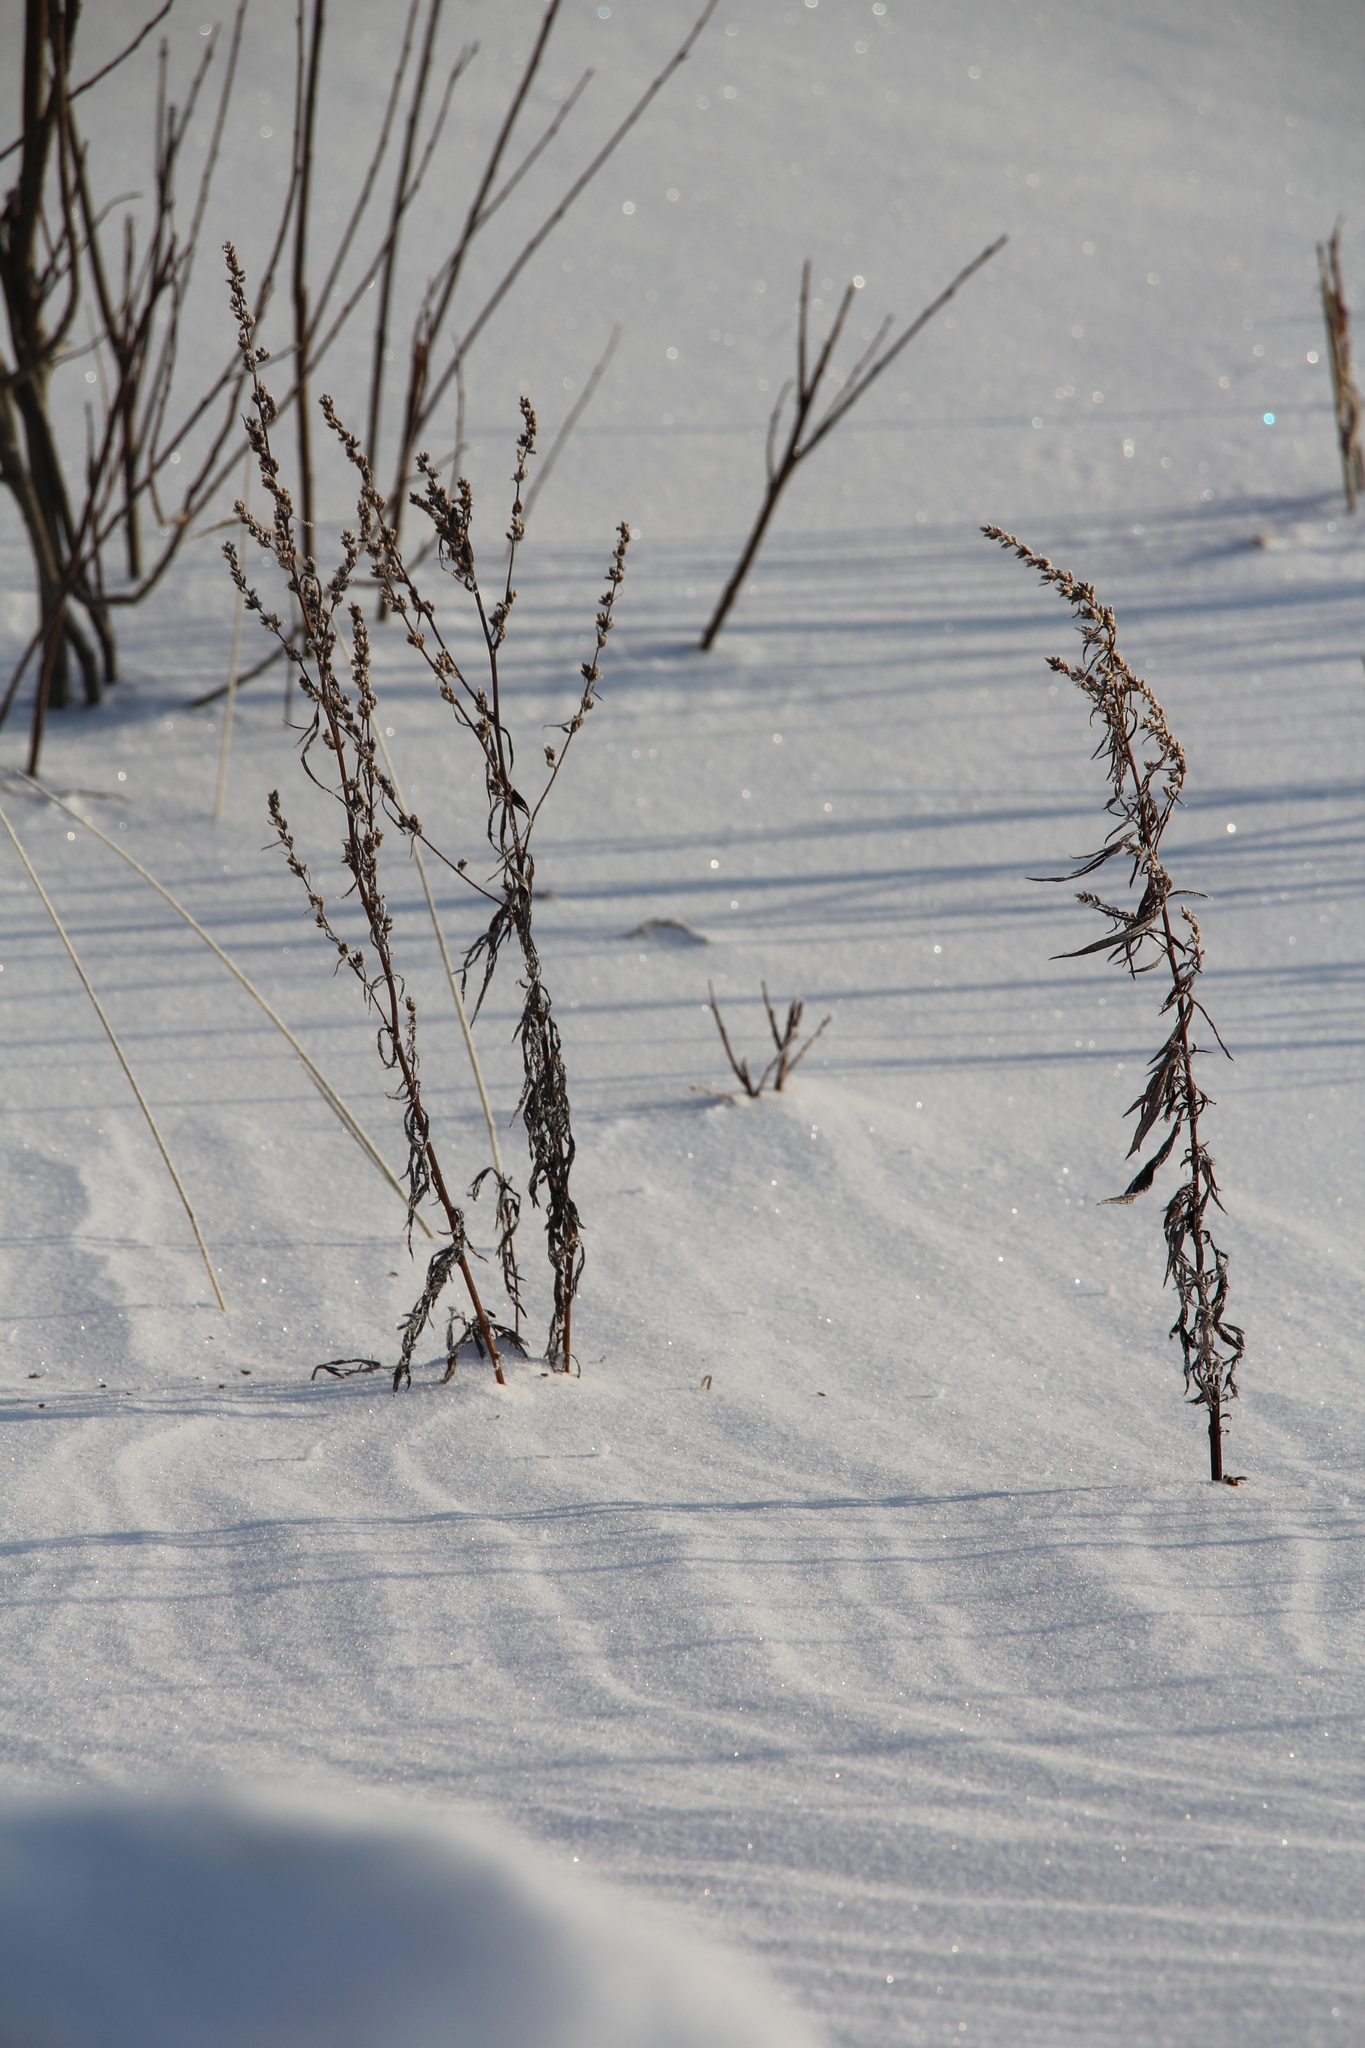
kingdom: Plantae
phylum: Tracheophyta
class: Magnoliopsida
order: Asterales
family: Asteraceae
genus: Artemisia
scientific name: Artemisia vulgaris
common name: Mugwort
